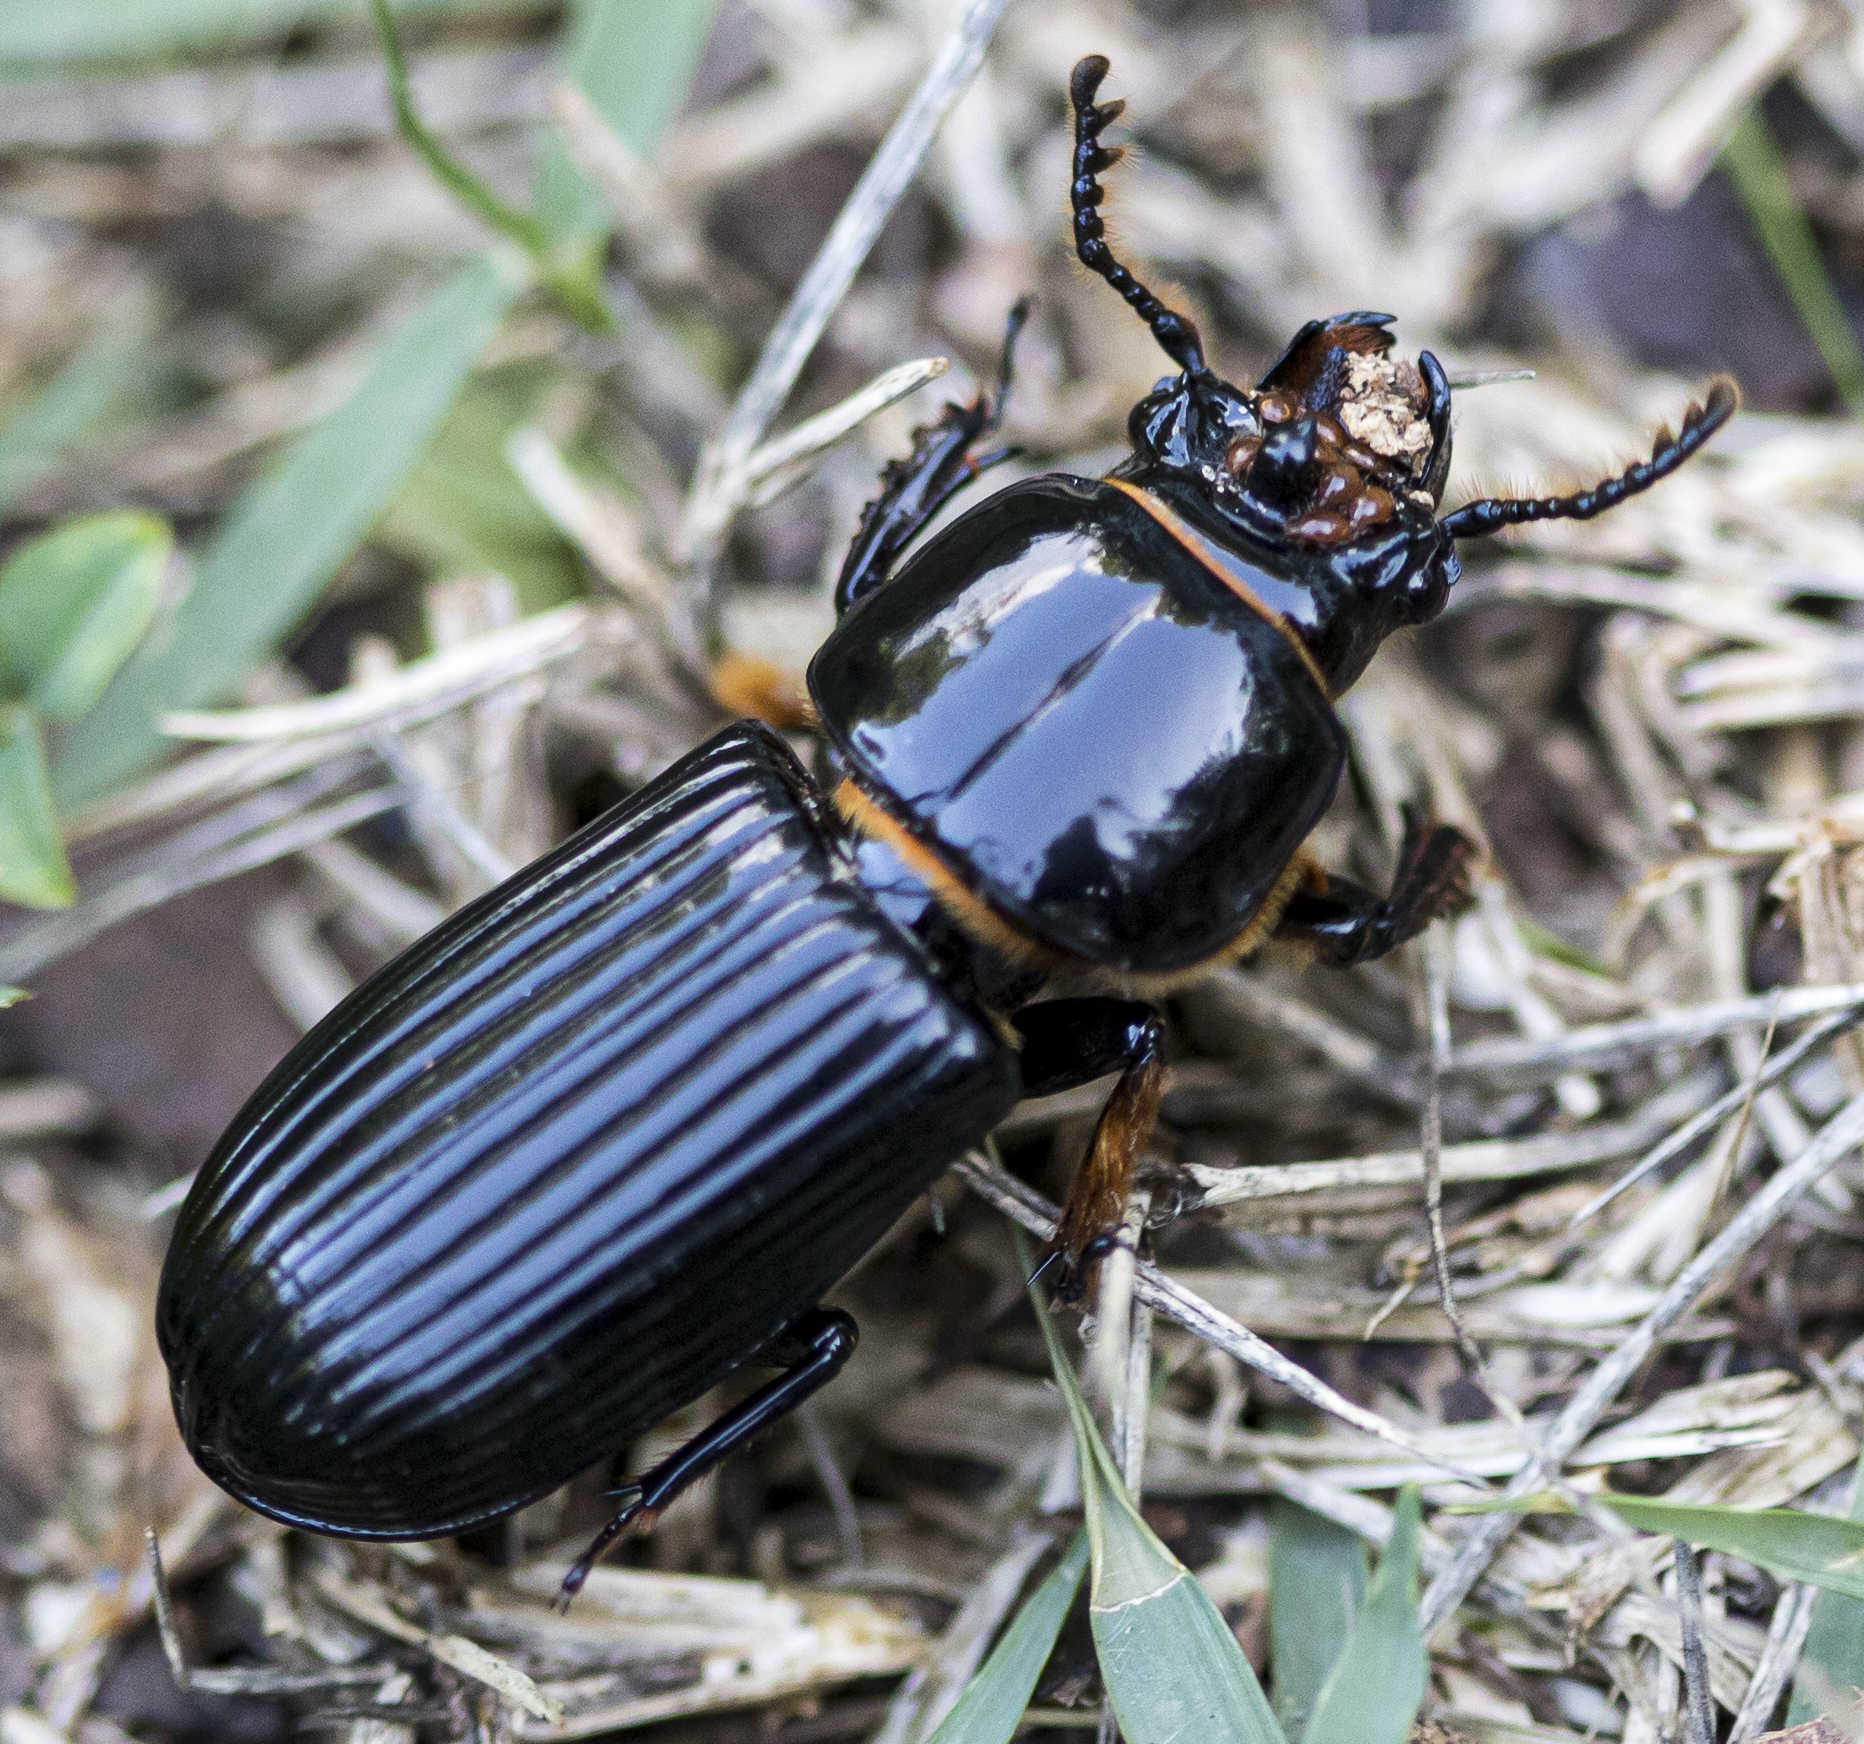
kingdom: Animalia
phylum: Arthropoda
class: Insecta
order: Coleoptera
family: Passalidae
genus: Odontotaenius
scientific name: Odontotaenius disjunctus
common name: Patent leather beetle
